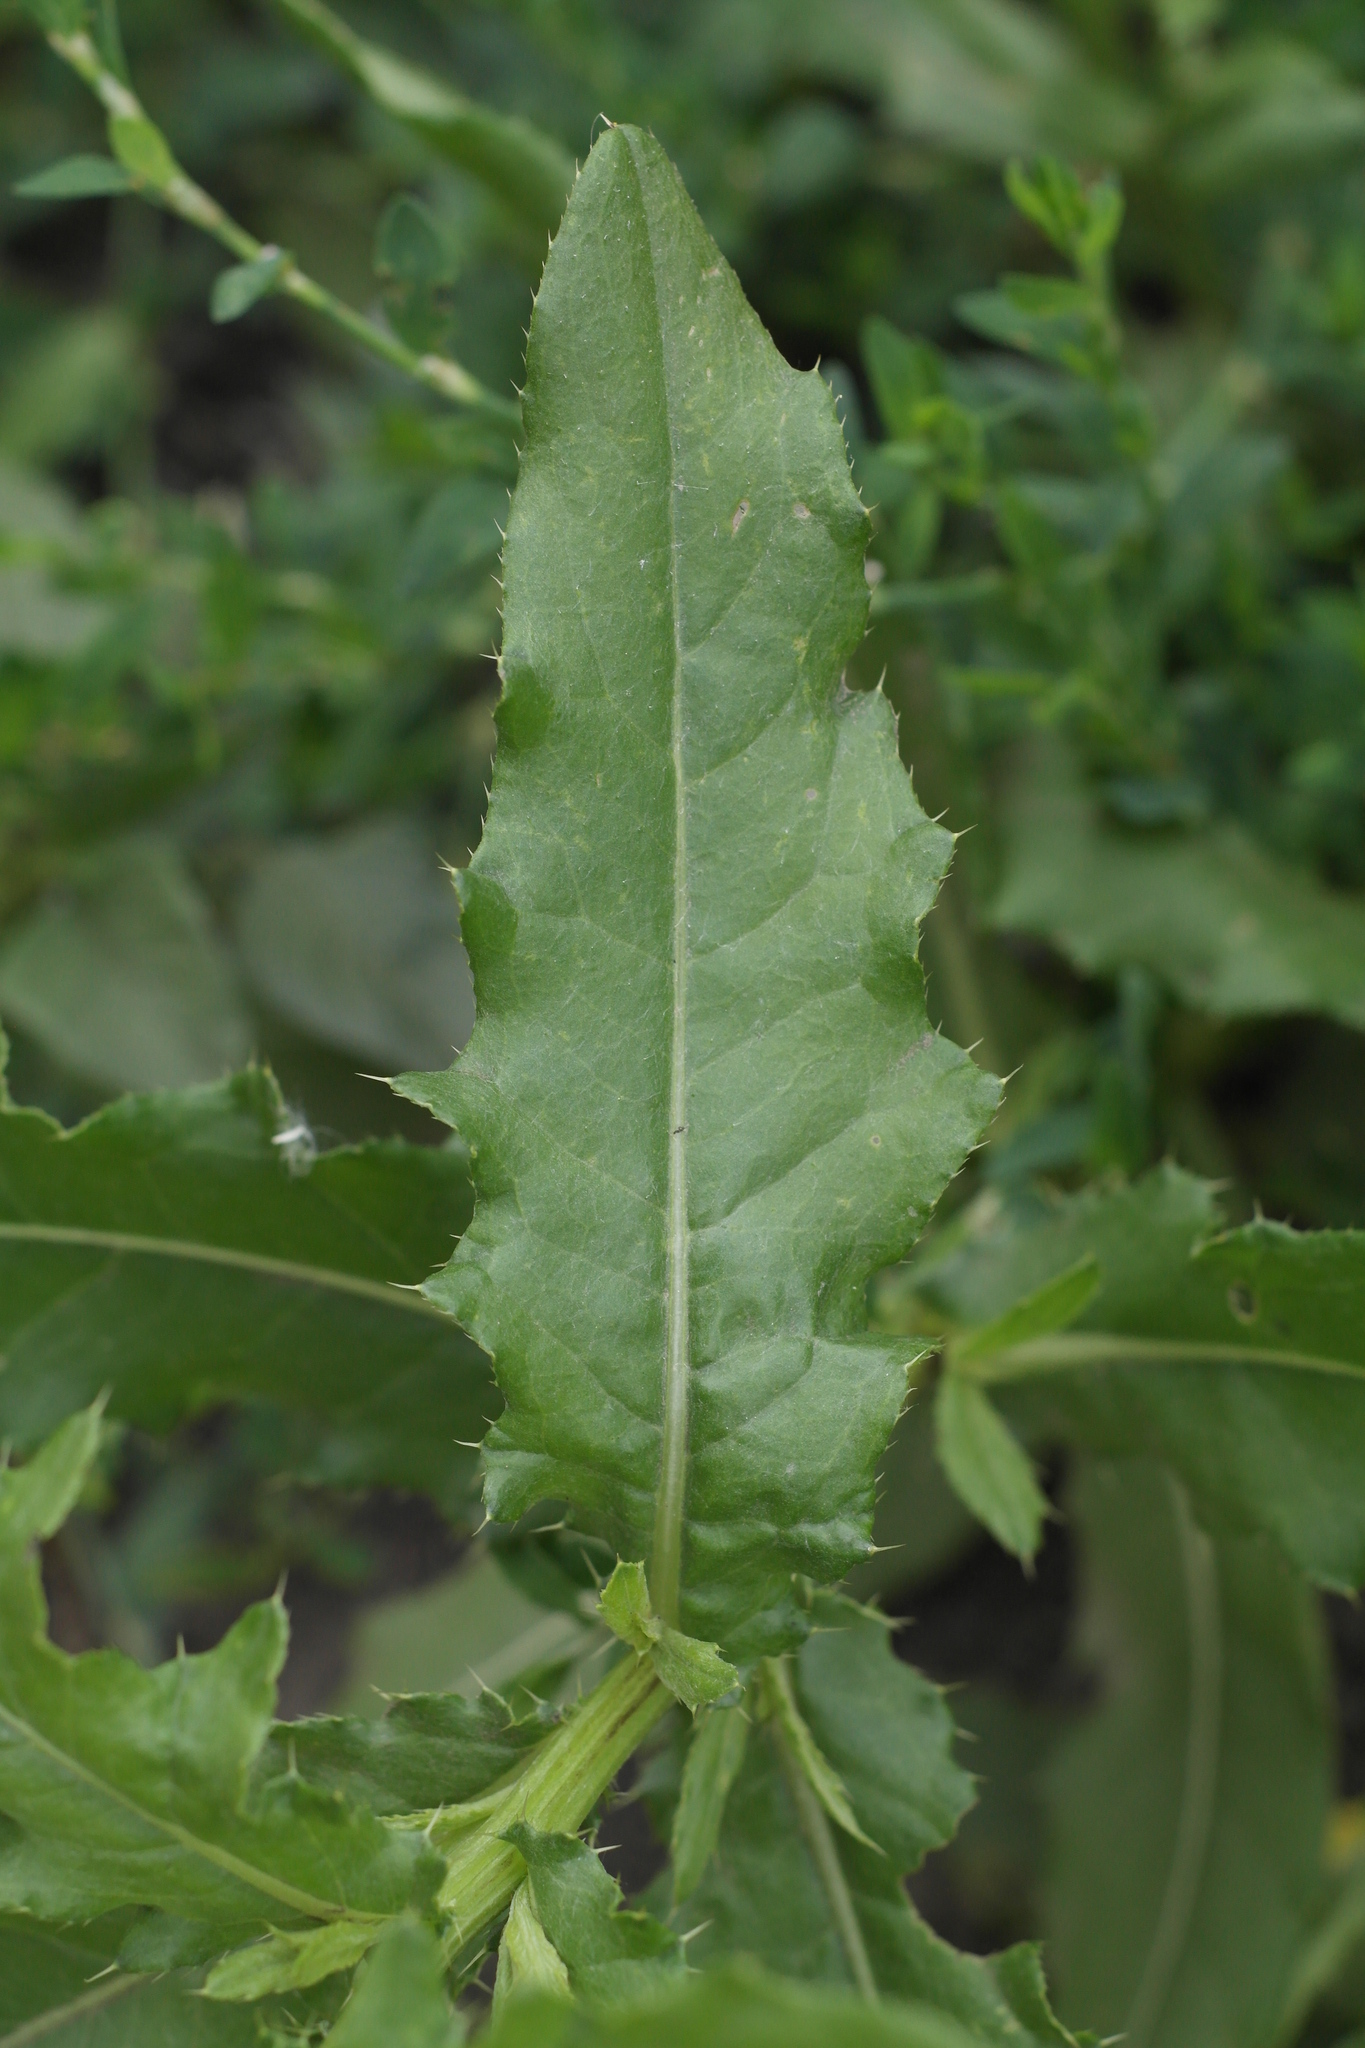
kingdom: Plantae
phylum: Tracheophyta
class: Magnoliopsida
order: Asterales
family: Asteraceae
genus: Cirsium
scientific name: Cirsium arvense
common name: Creeping thistle
